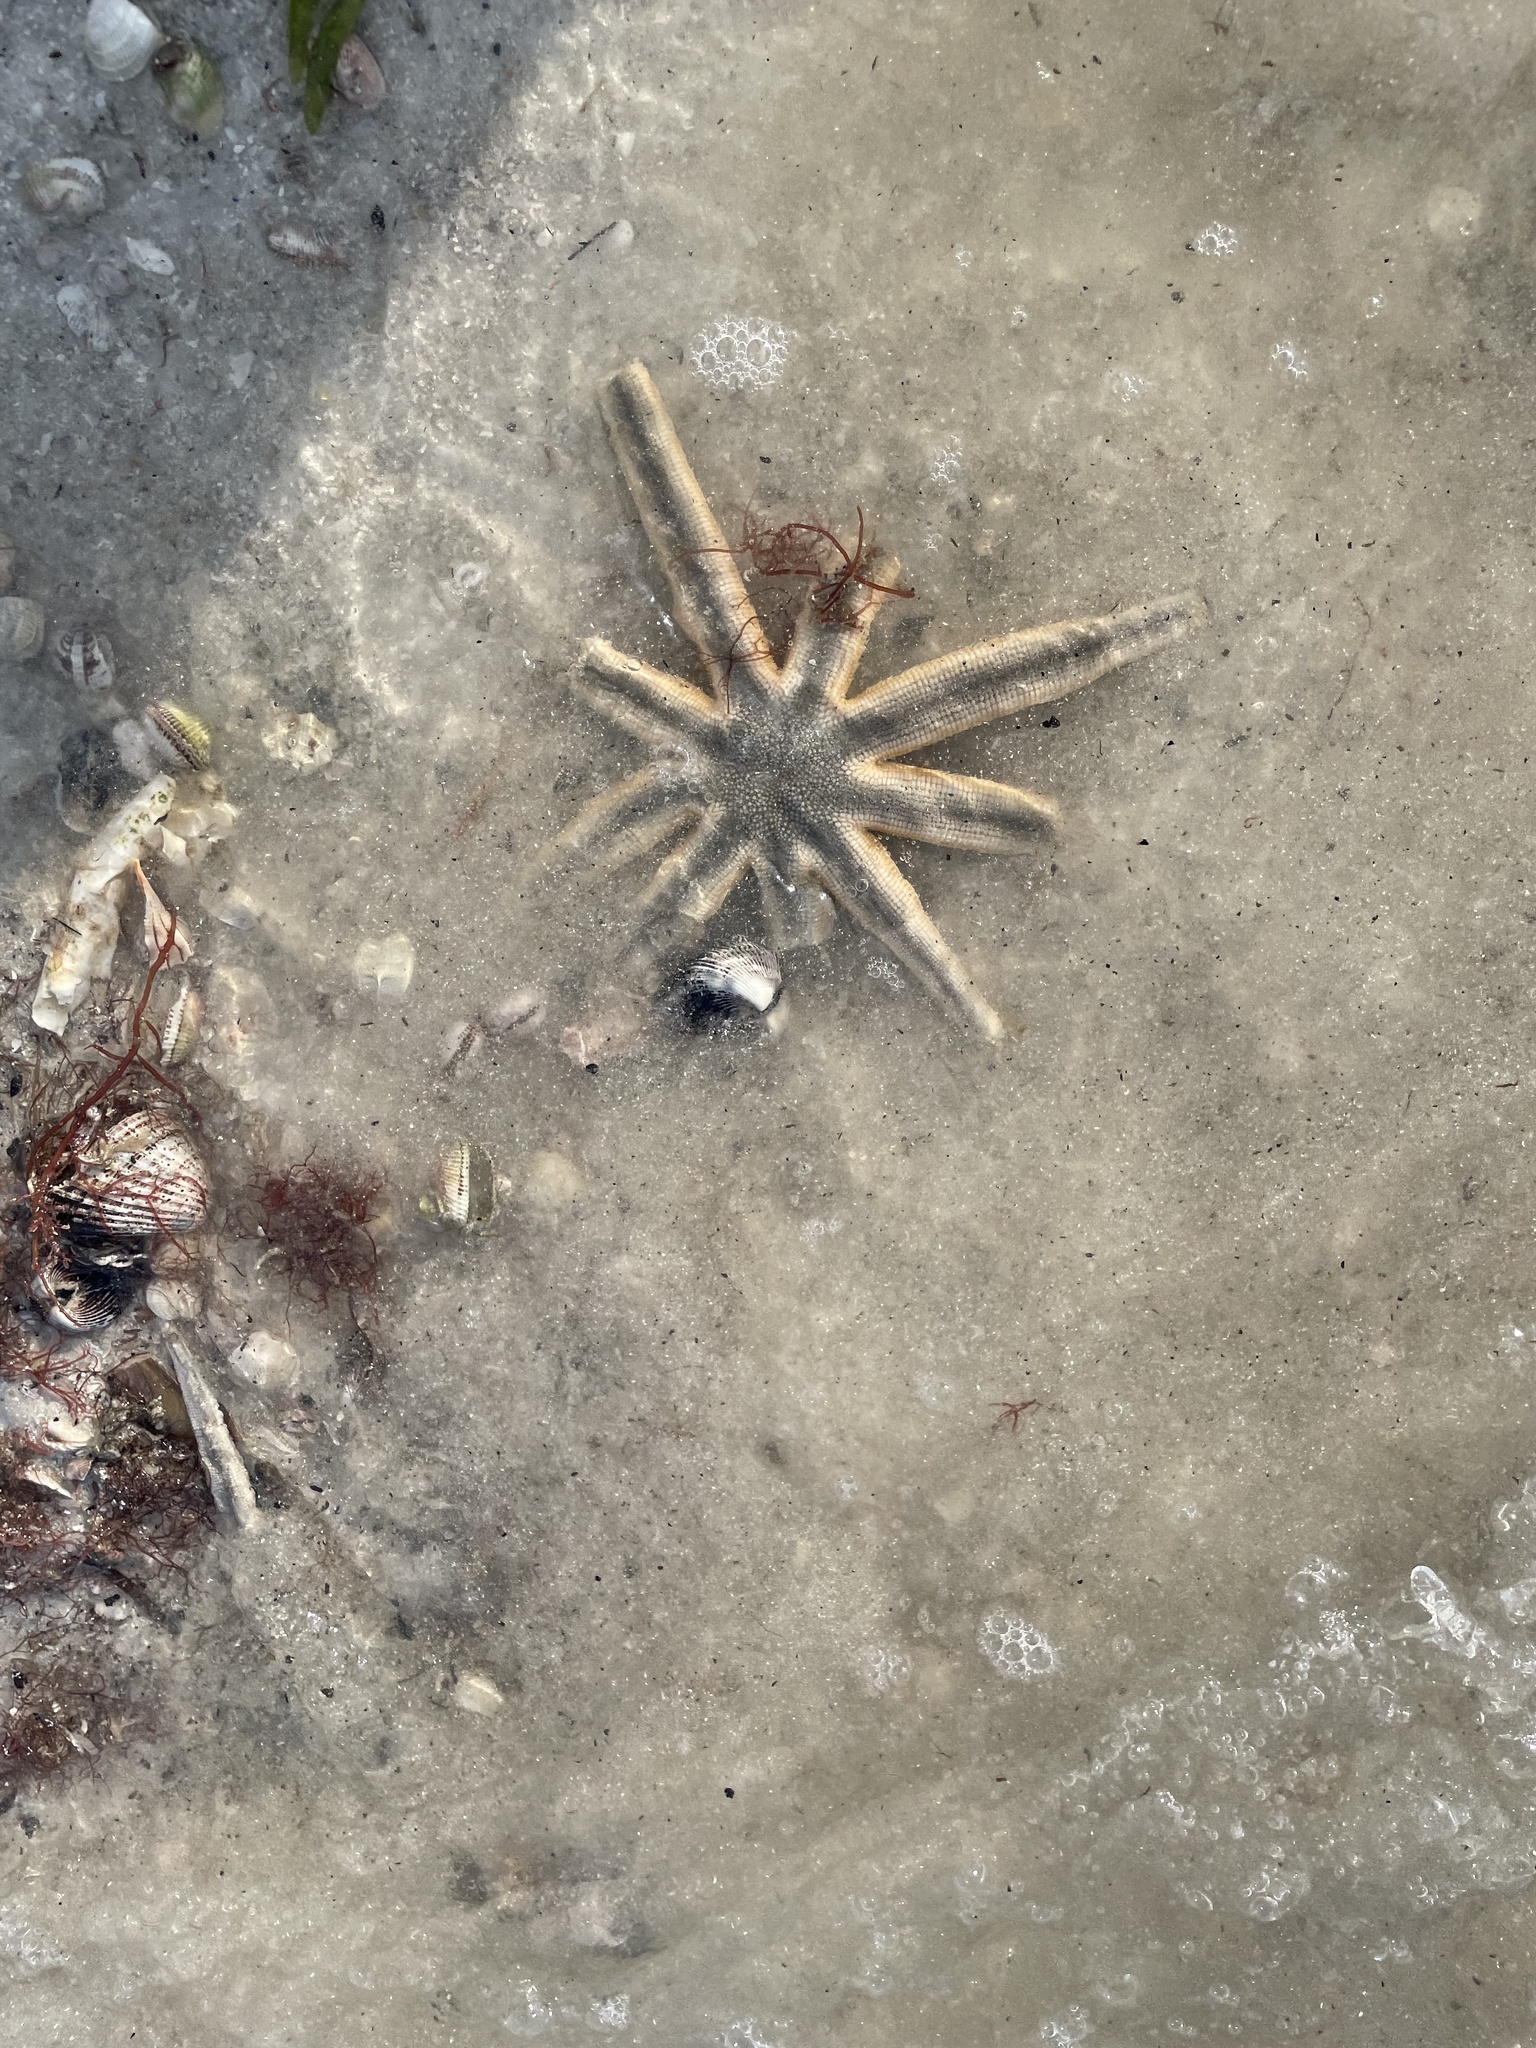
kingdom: Animalia
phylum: Echinodermata
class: Asteroidea
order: Paxillosida
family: Luidiidae
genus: Luidia
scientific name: Luidia senegalensis
